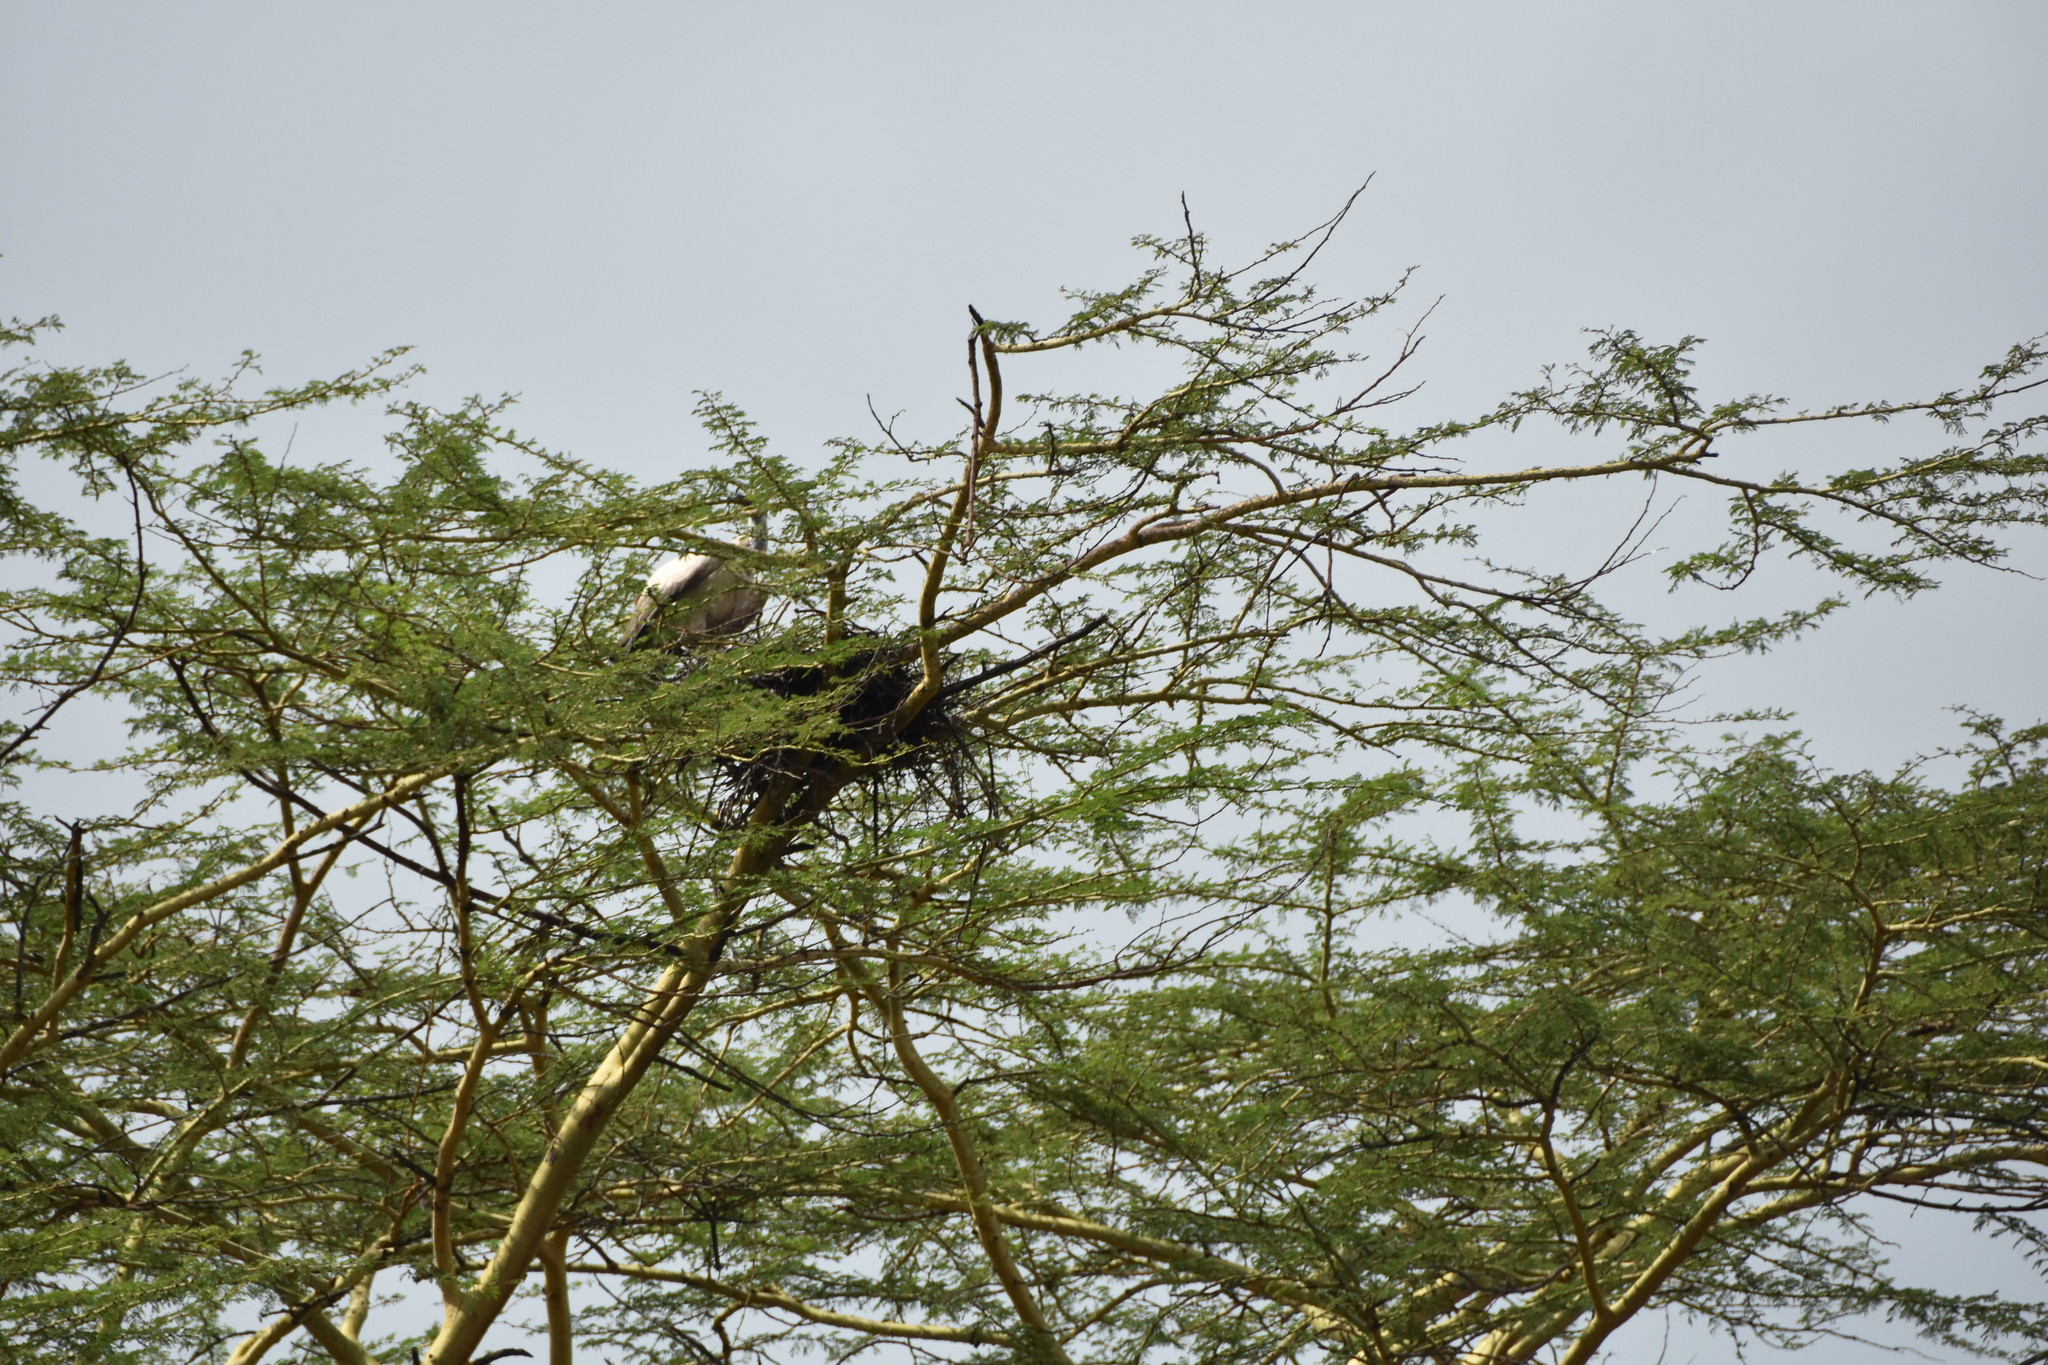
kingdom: Animalia
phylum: Chordata
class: Aves
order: Accipitriformes
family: Accipitridae
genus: Gyps
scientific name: Gyps africanus
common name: White-backed vulture
